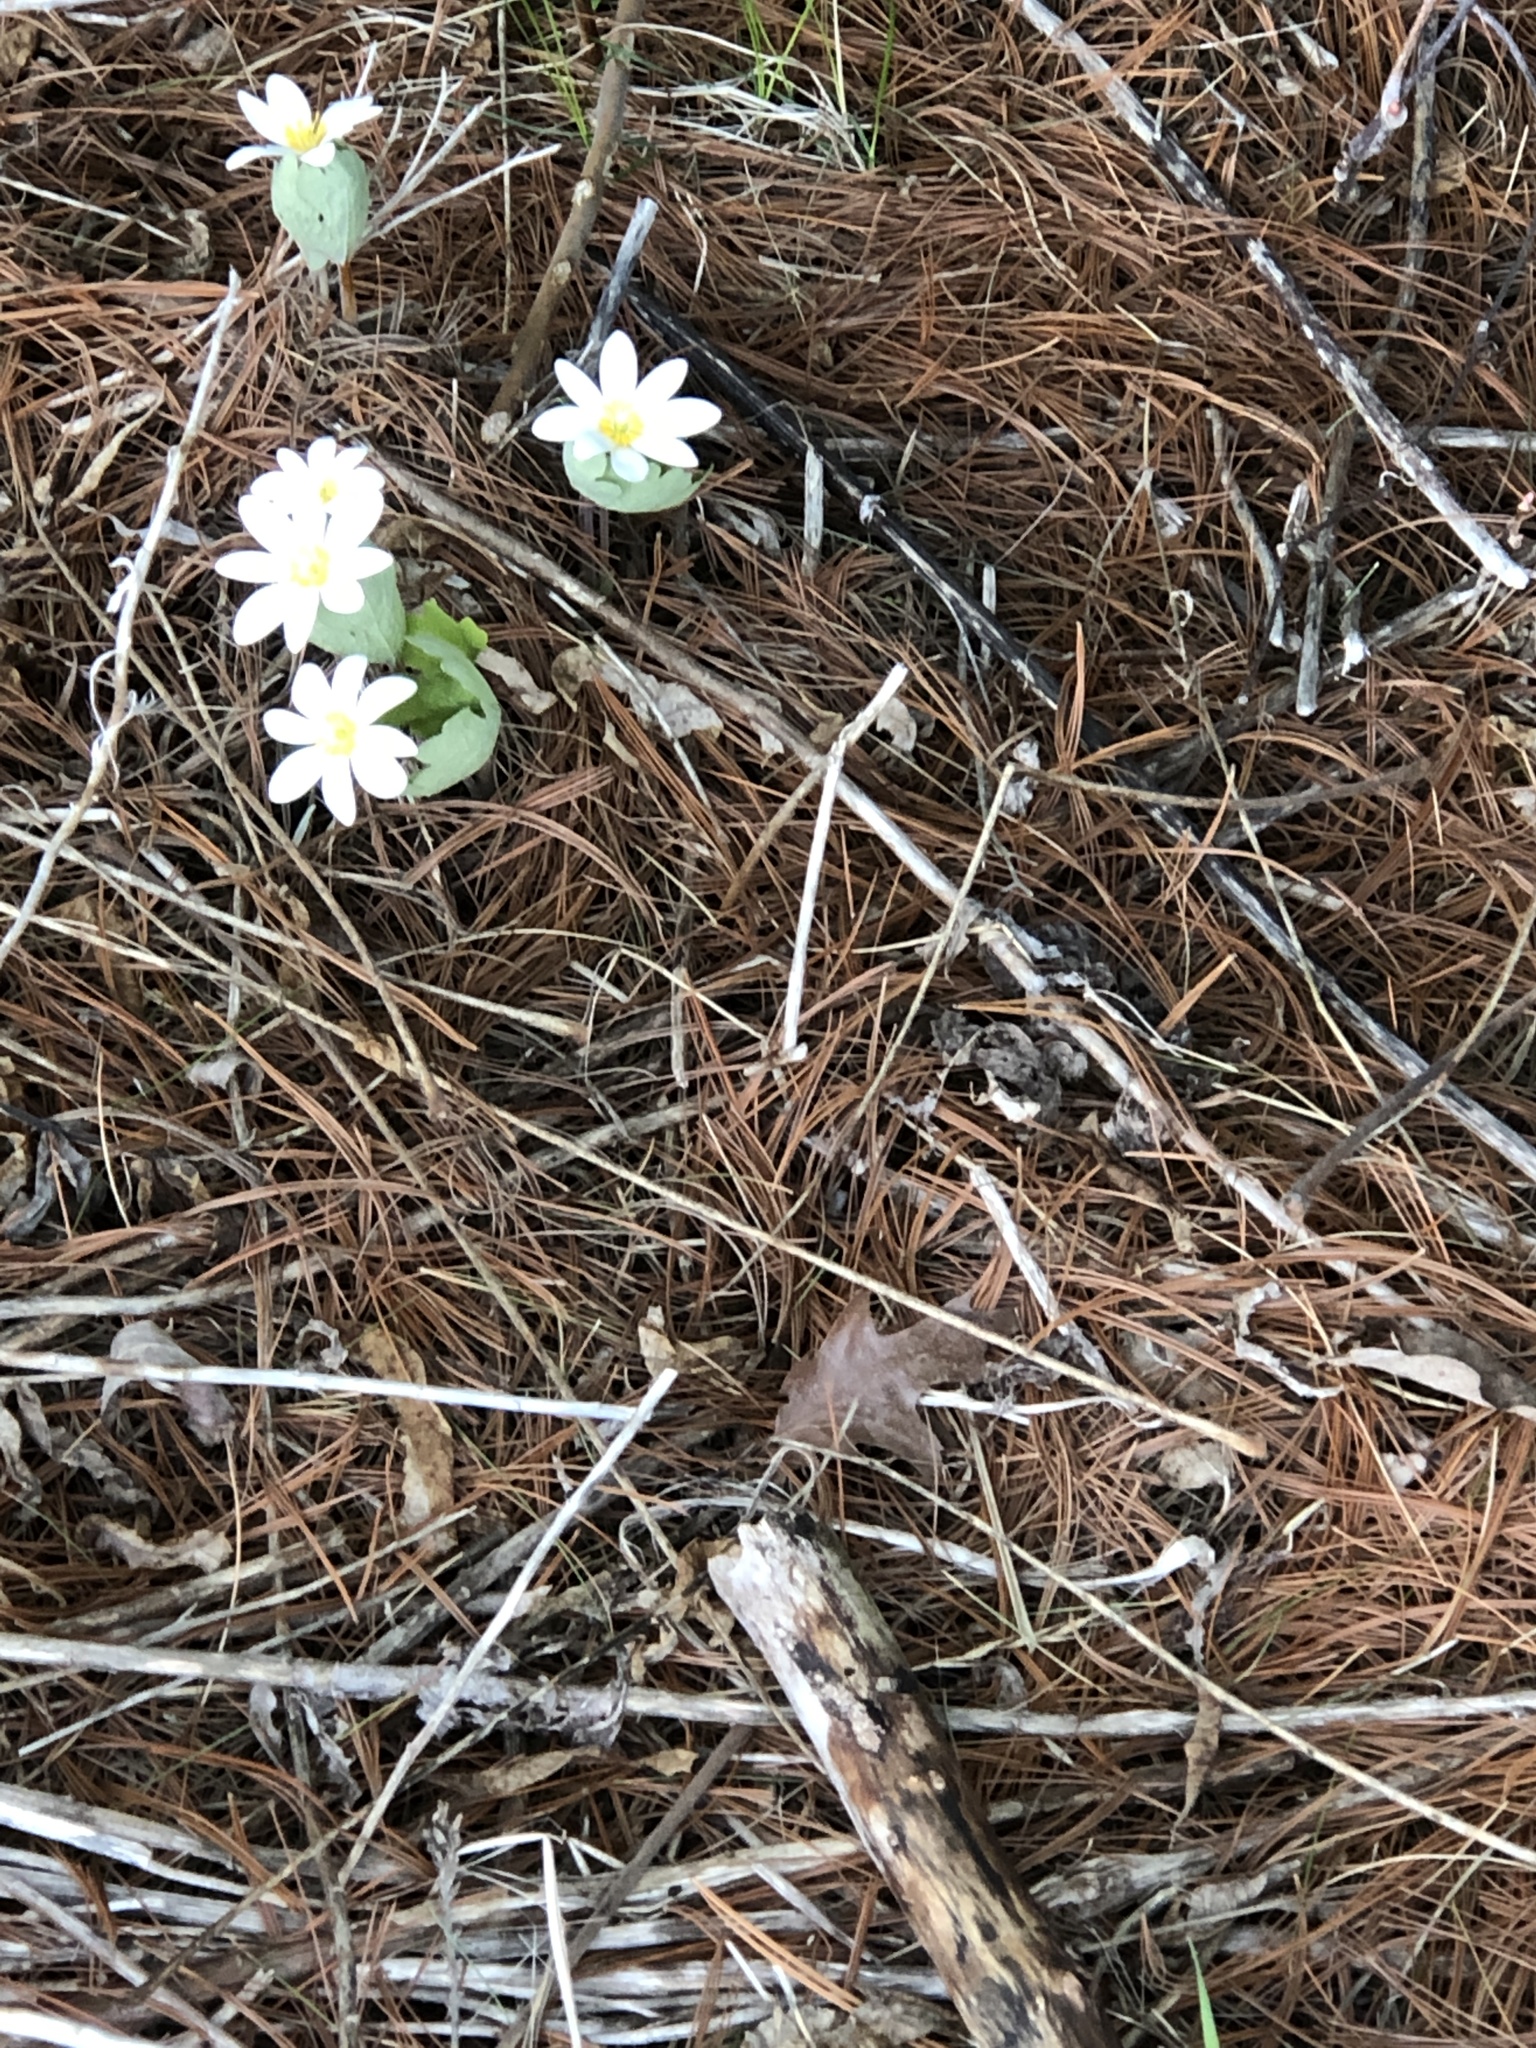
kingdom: Plantae
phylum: Tracheophyta
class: Magnoliopsida
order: Ranunculales
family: Papaveraceae
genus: Sanguinaria
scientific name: Sanguinaria canadensis
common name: Bloodroot
